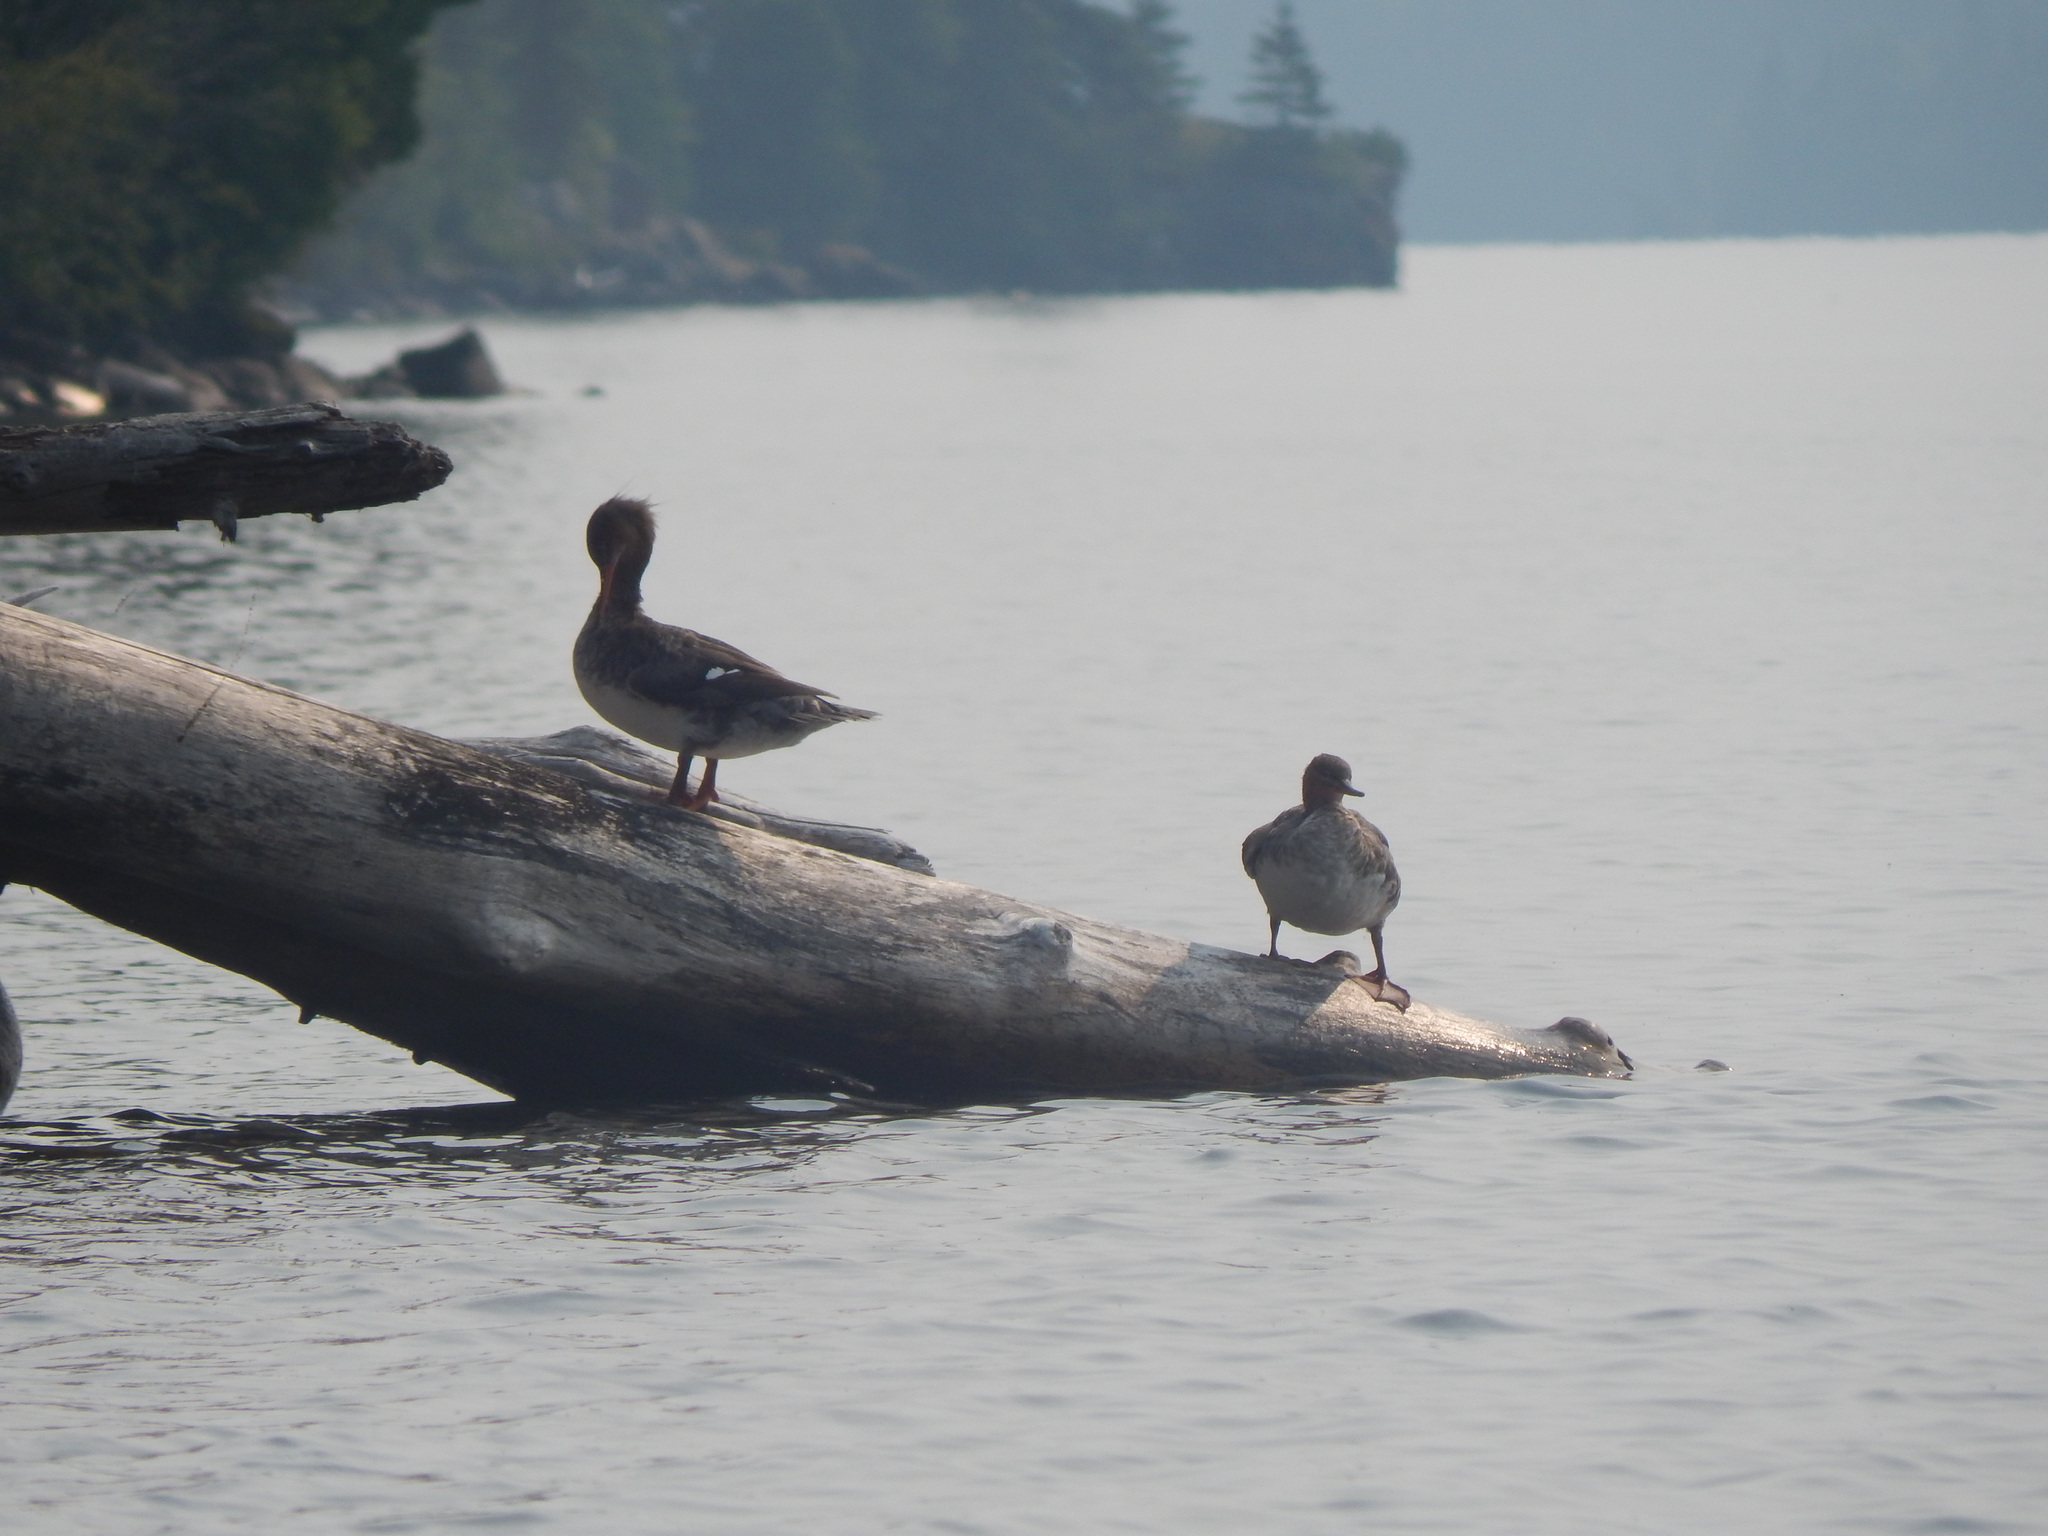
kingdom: Animalia
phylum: Chordata
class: Aves
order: Anseriformes
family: Anatidae
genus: Mergus
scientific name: Mergus serrator
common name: Red-breasted merganser
